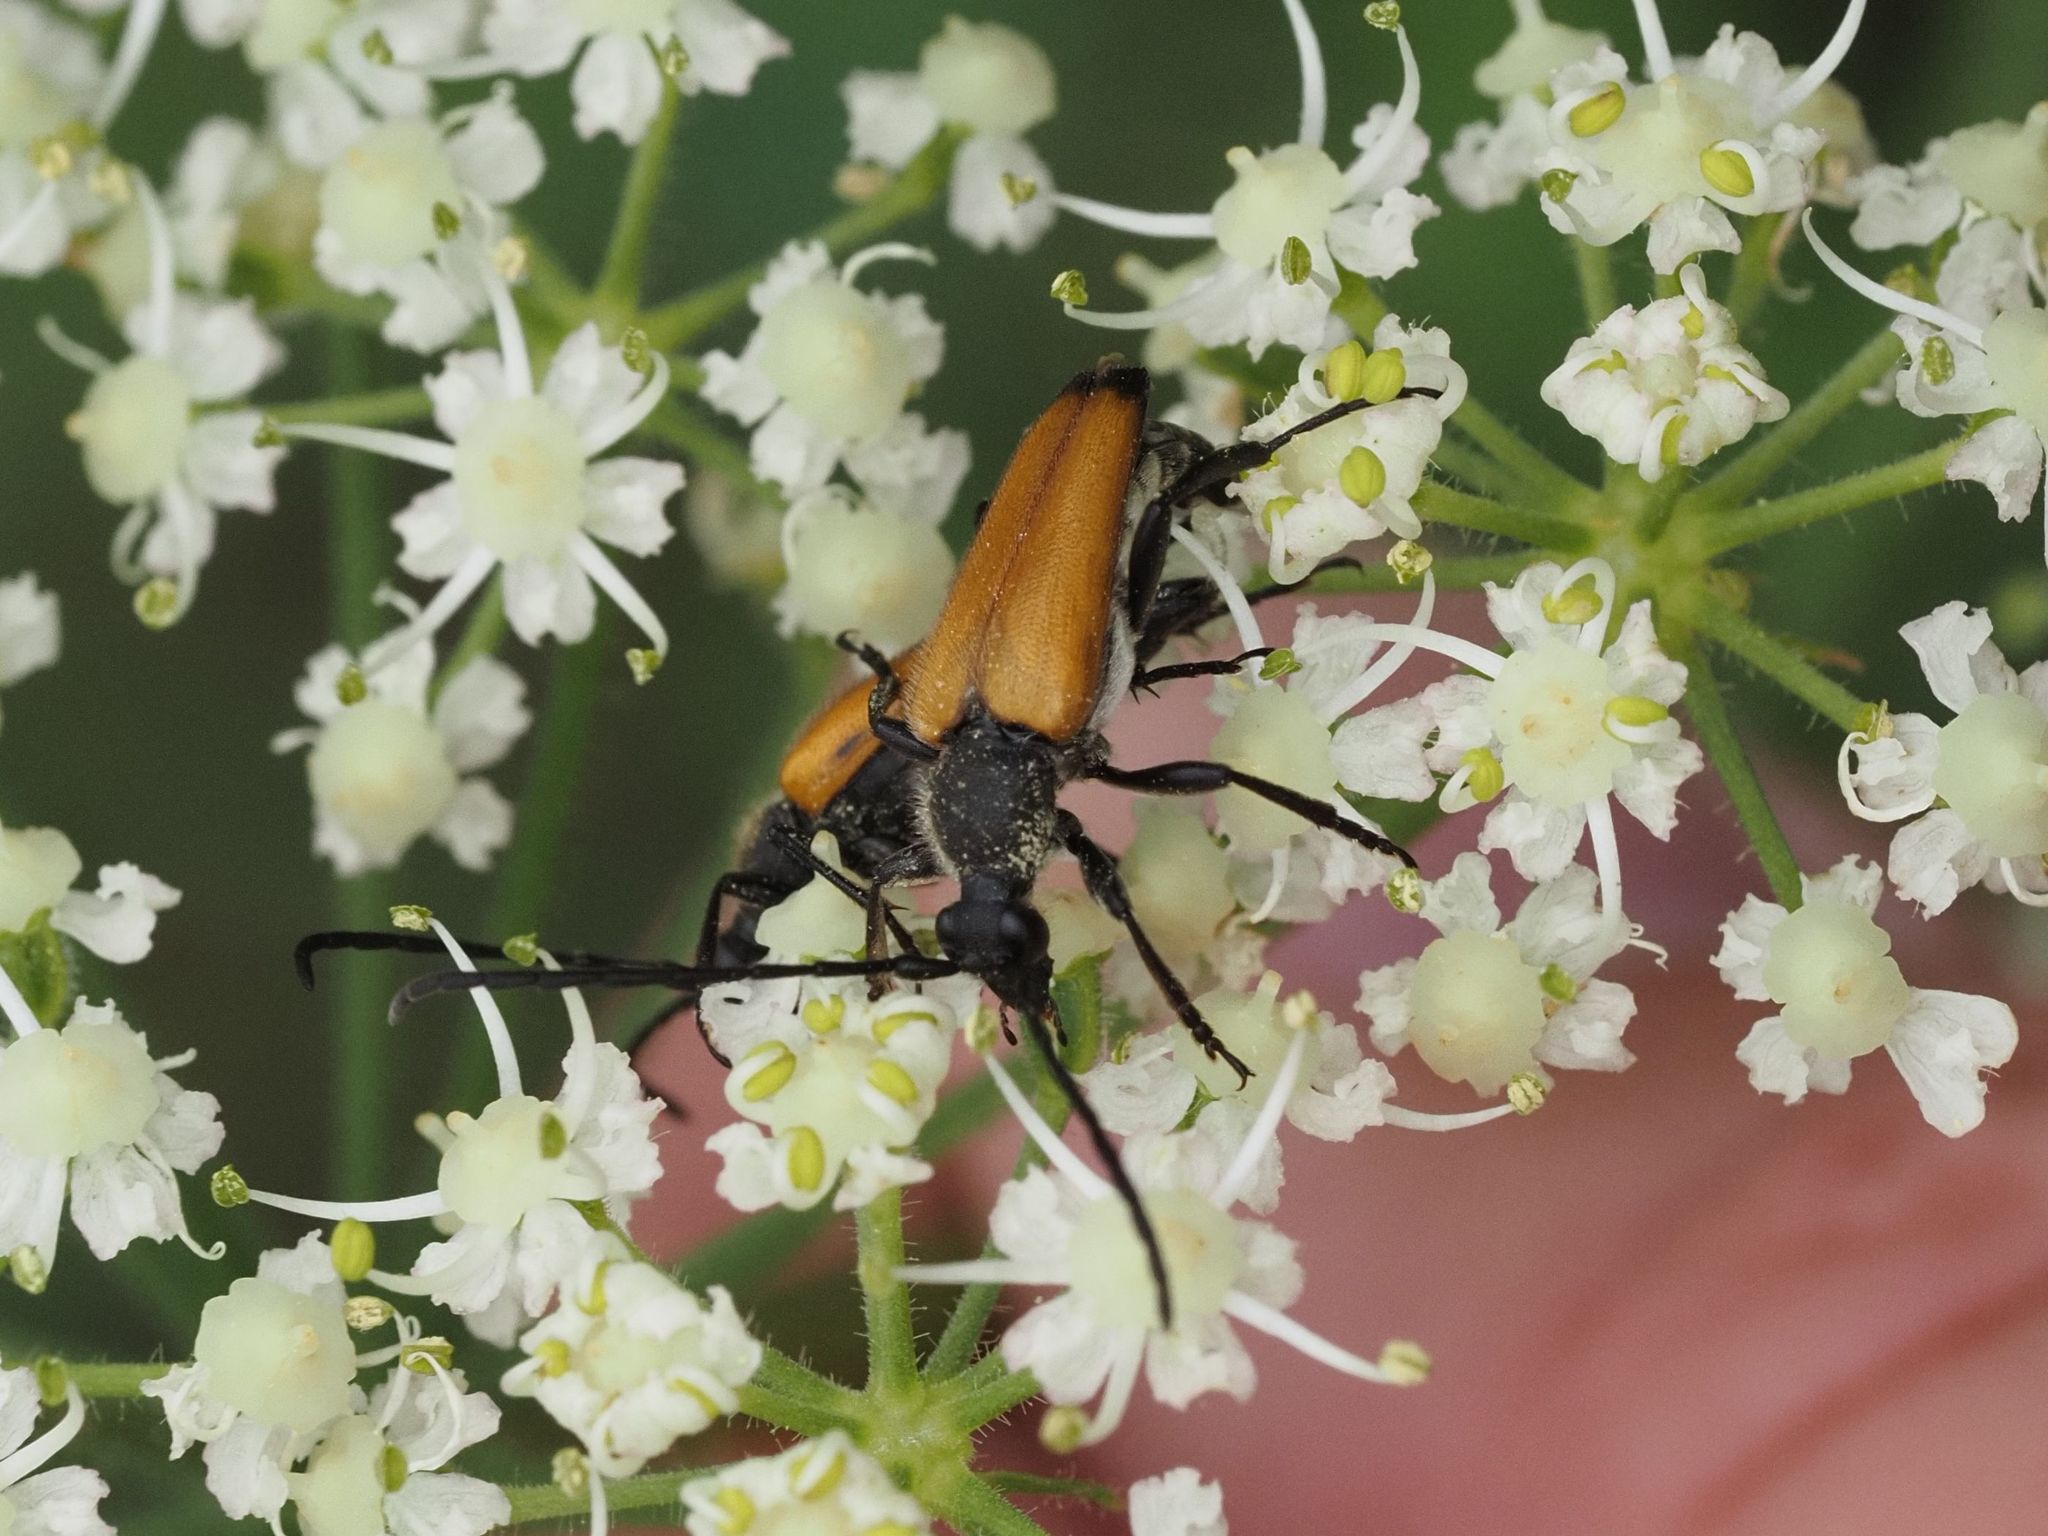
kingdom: Animalia
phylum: Arthropoda
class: Insecta
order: Coleoptera
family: Cerambycidae
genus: Paracorymbia
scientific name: Paracorymbia fulva
